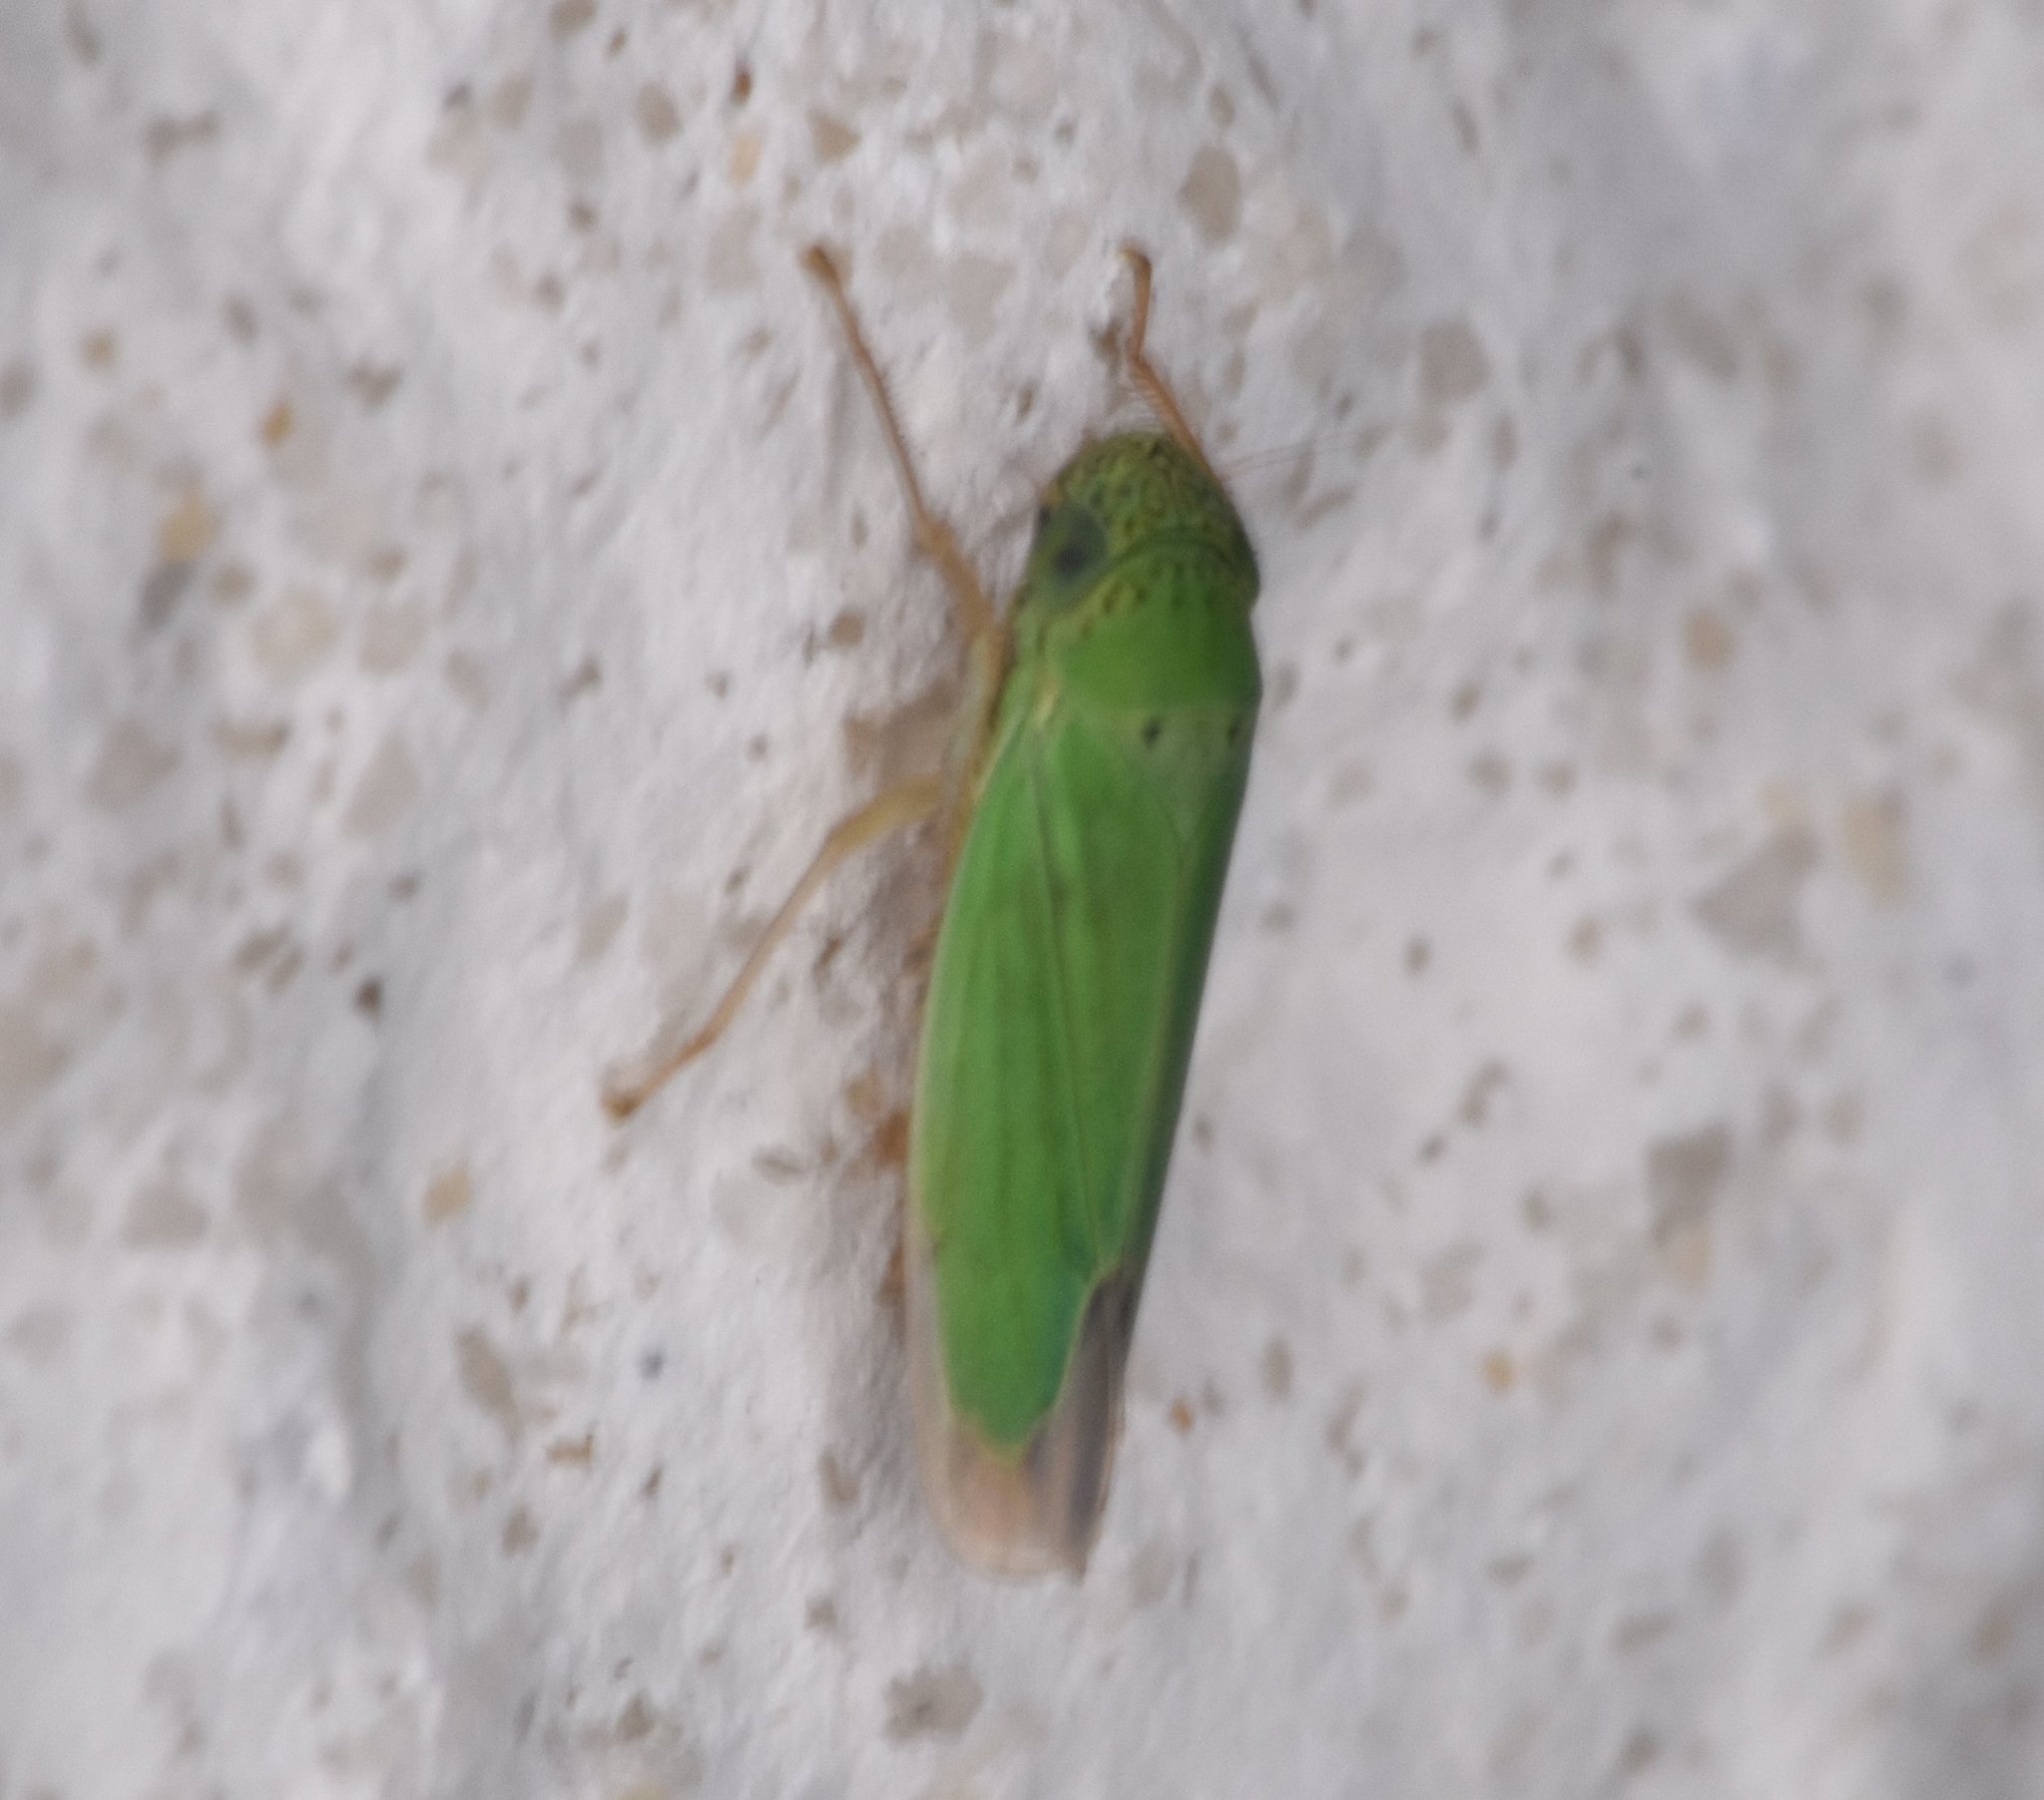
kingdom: Animalia
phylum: Arthropoda
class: Insecta
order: Hemiptera
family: Cicadellidae
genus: Hortensia
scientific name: Hortensia similis
